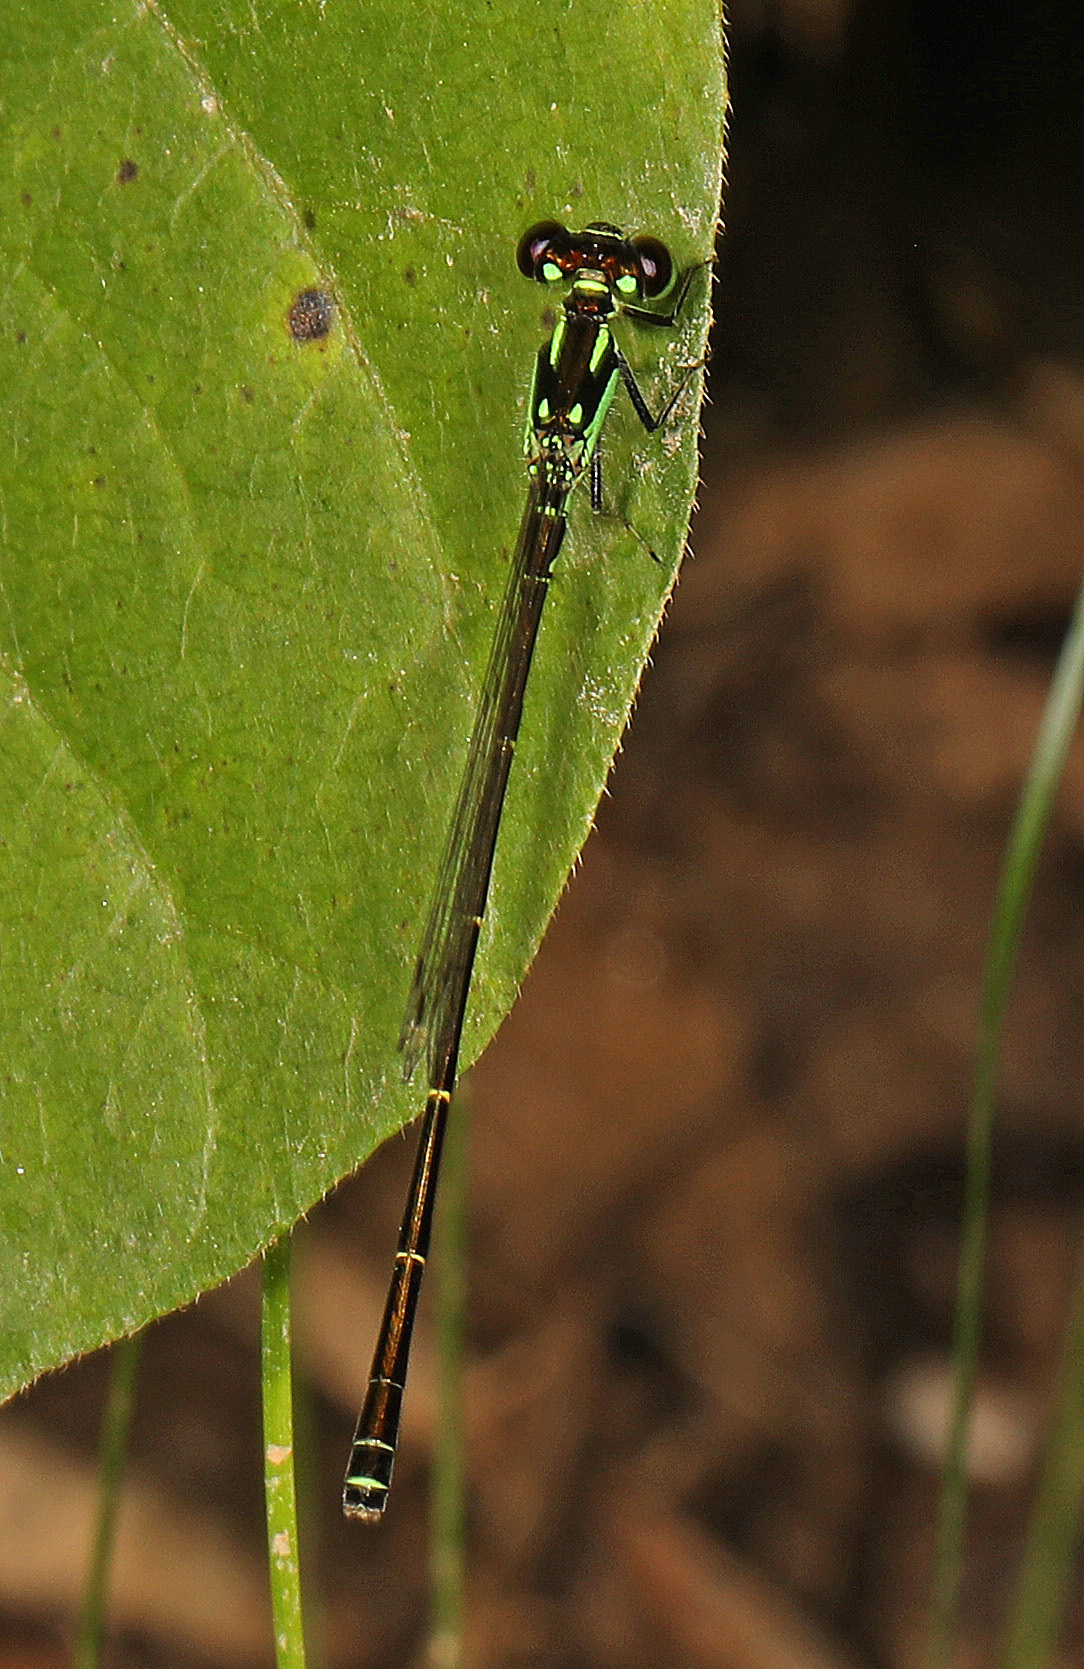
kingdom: Animalia
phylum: Arthropoda
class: Insecta
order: Odonata
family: Coenagrionidae
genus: Ischnura
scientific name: Ischnura posita
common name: Fragile forktail
